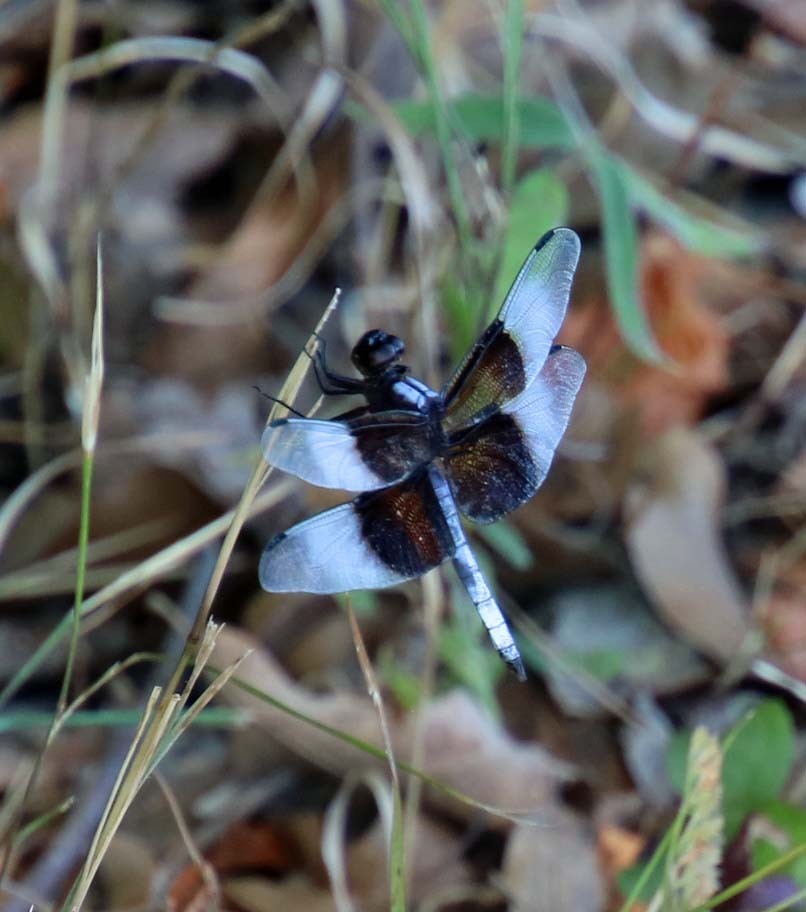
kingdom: Animalia
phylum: Arthropoda
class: Insecta
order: Odonata
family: Libellulidae
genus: Libellula
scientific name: Libellula luctuosa
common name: Widow skimmer
